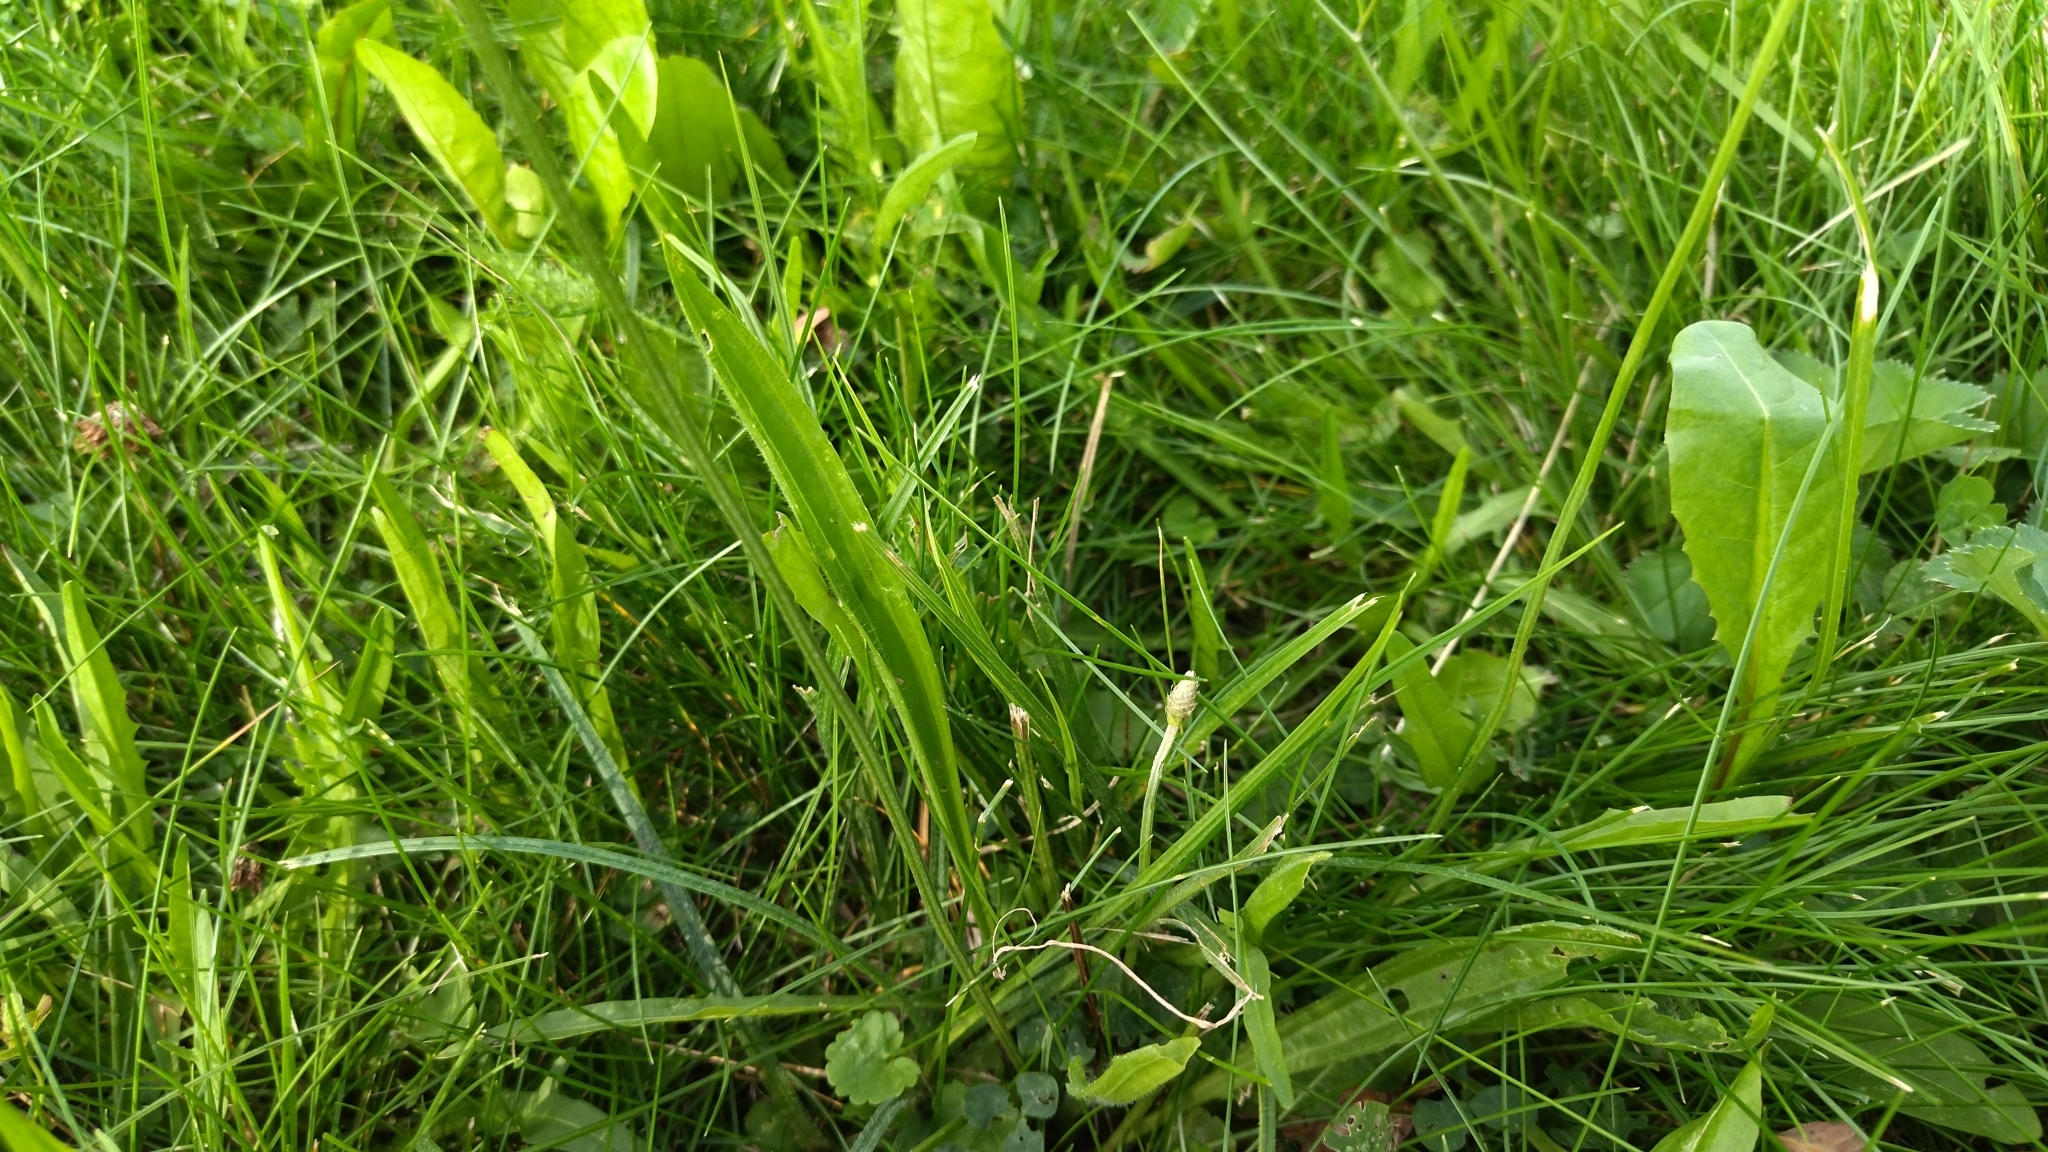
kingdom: Plantae
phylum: Tracheophyta
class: Magnoliopsida
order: Lamiales
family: Plantaginaceae
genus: Plantago
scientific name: Plantago lanceolata
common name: Ribwort plantain
